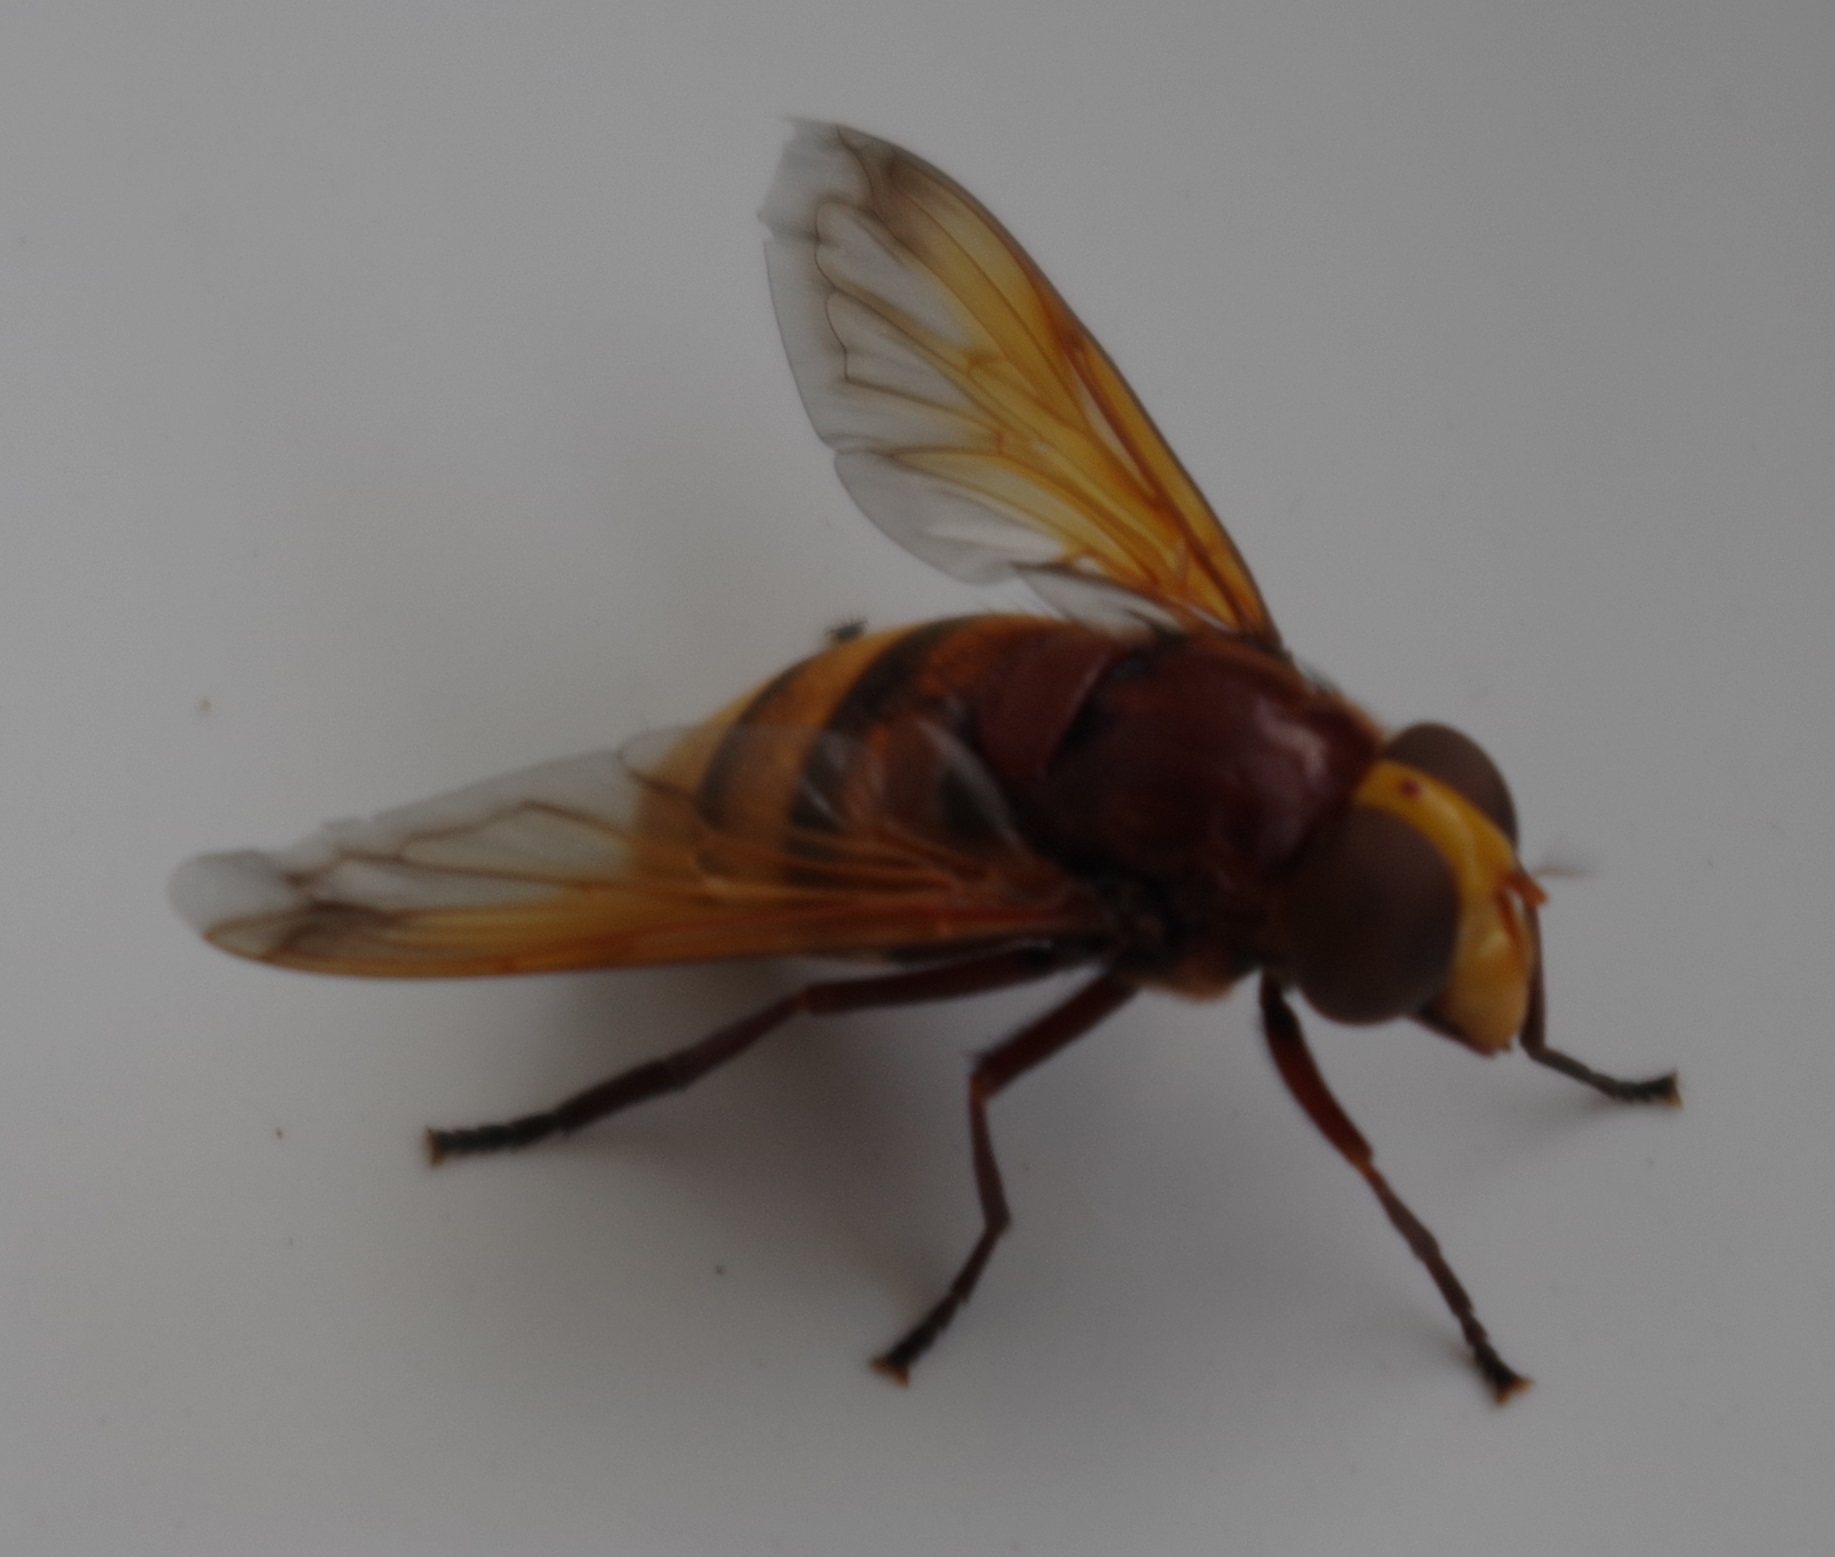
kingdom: Animalia
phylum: Arthropoda
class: Insecta
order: Diptera
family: Syrphidae
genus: Volucella
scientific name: Volucella zonaria
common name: Hornet hoverfly
